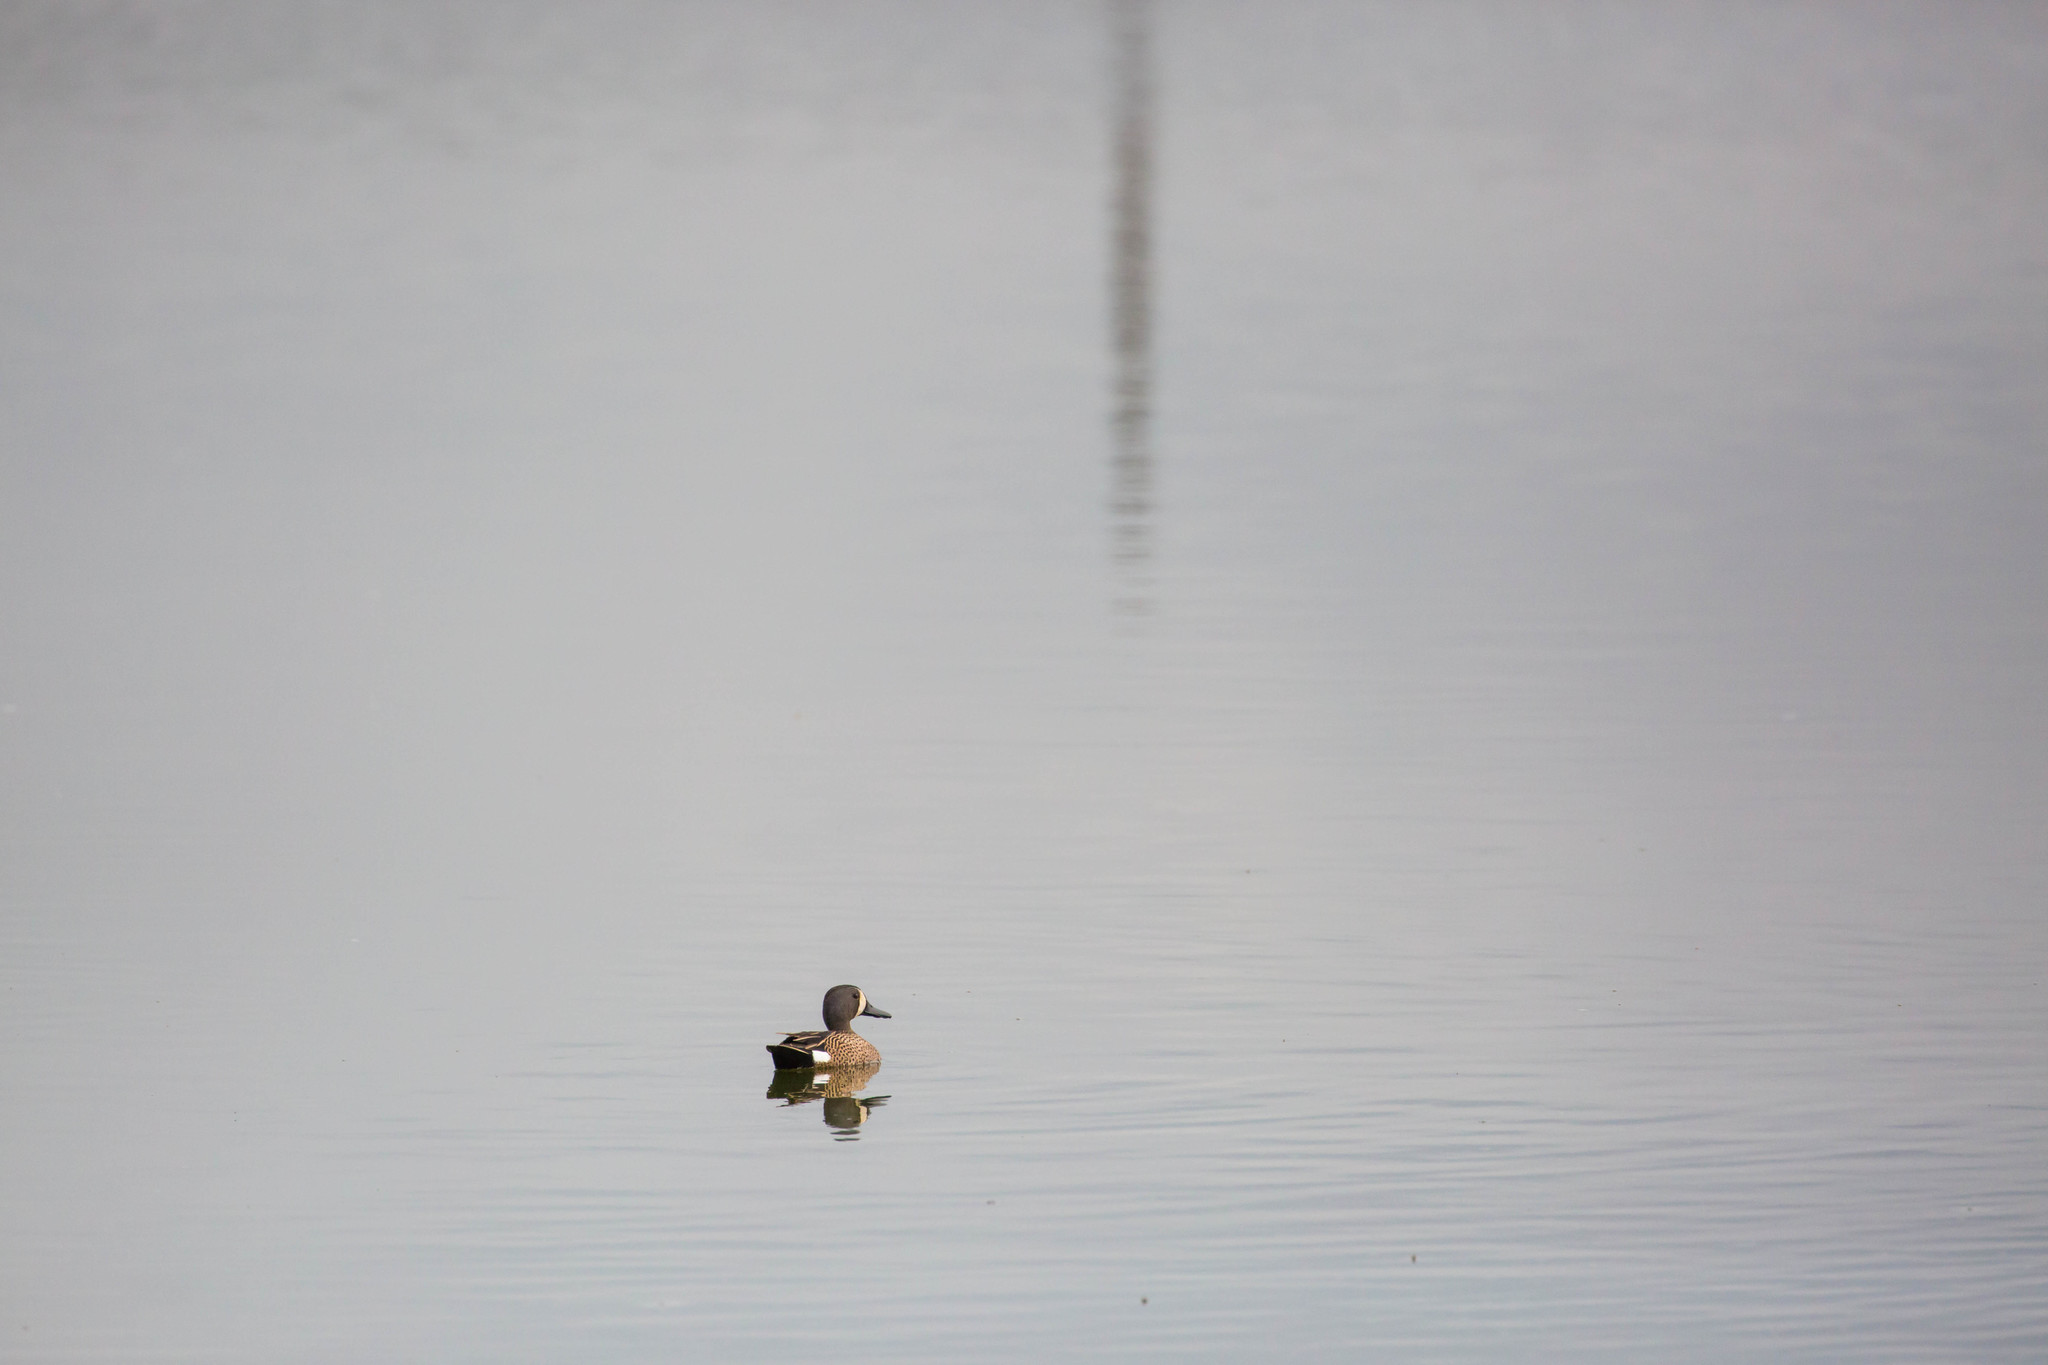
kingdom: Animalia
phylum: Chordata
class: Aves
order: Anseriformes
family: Anatidae
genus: Spatula
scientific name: Spatula discors
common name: Blue-winged teal
